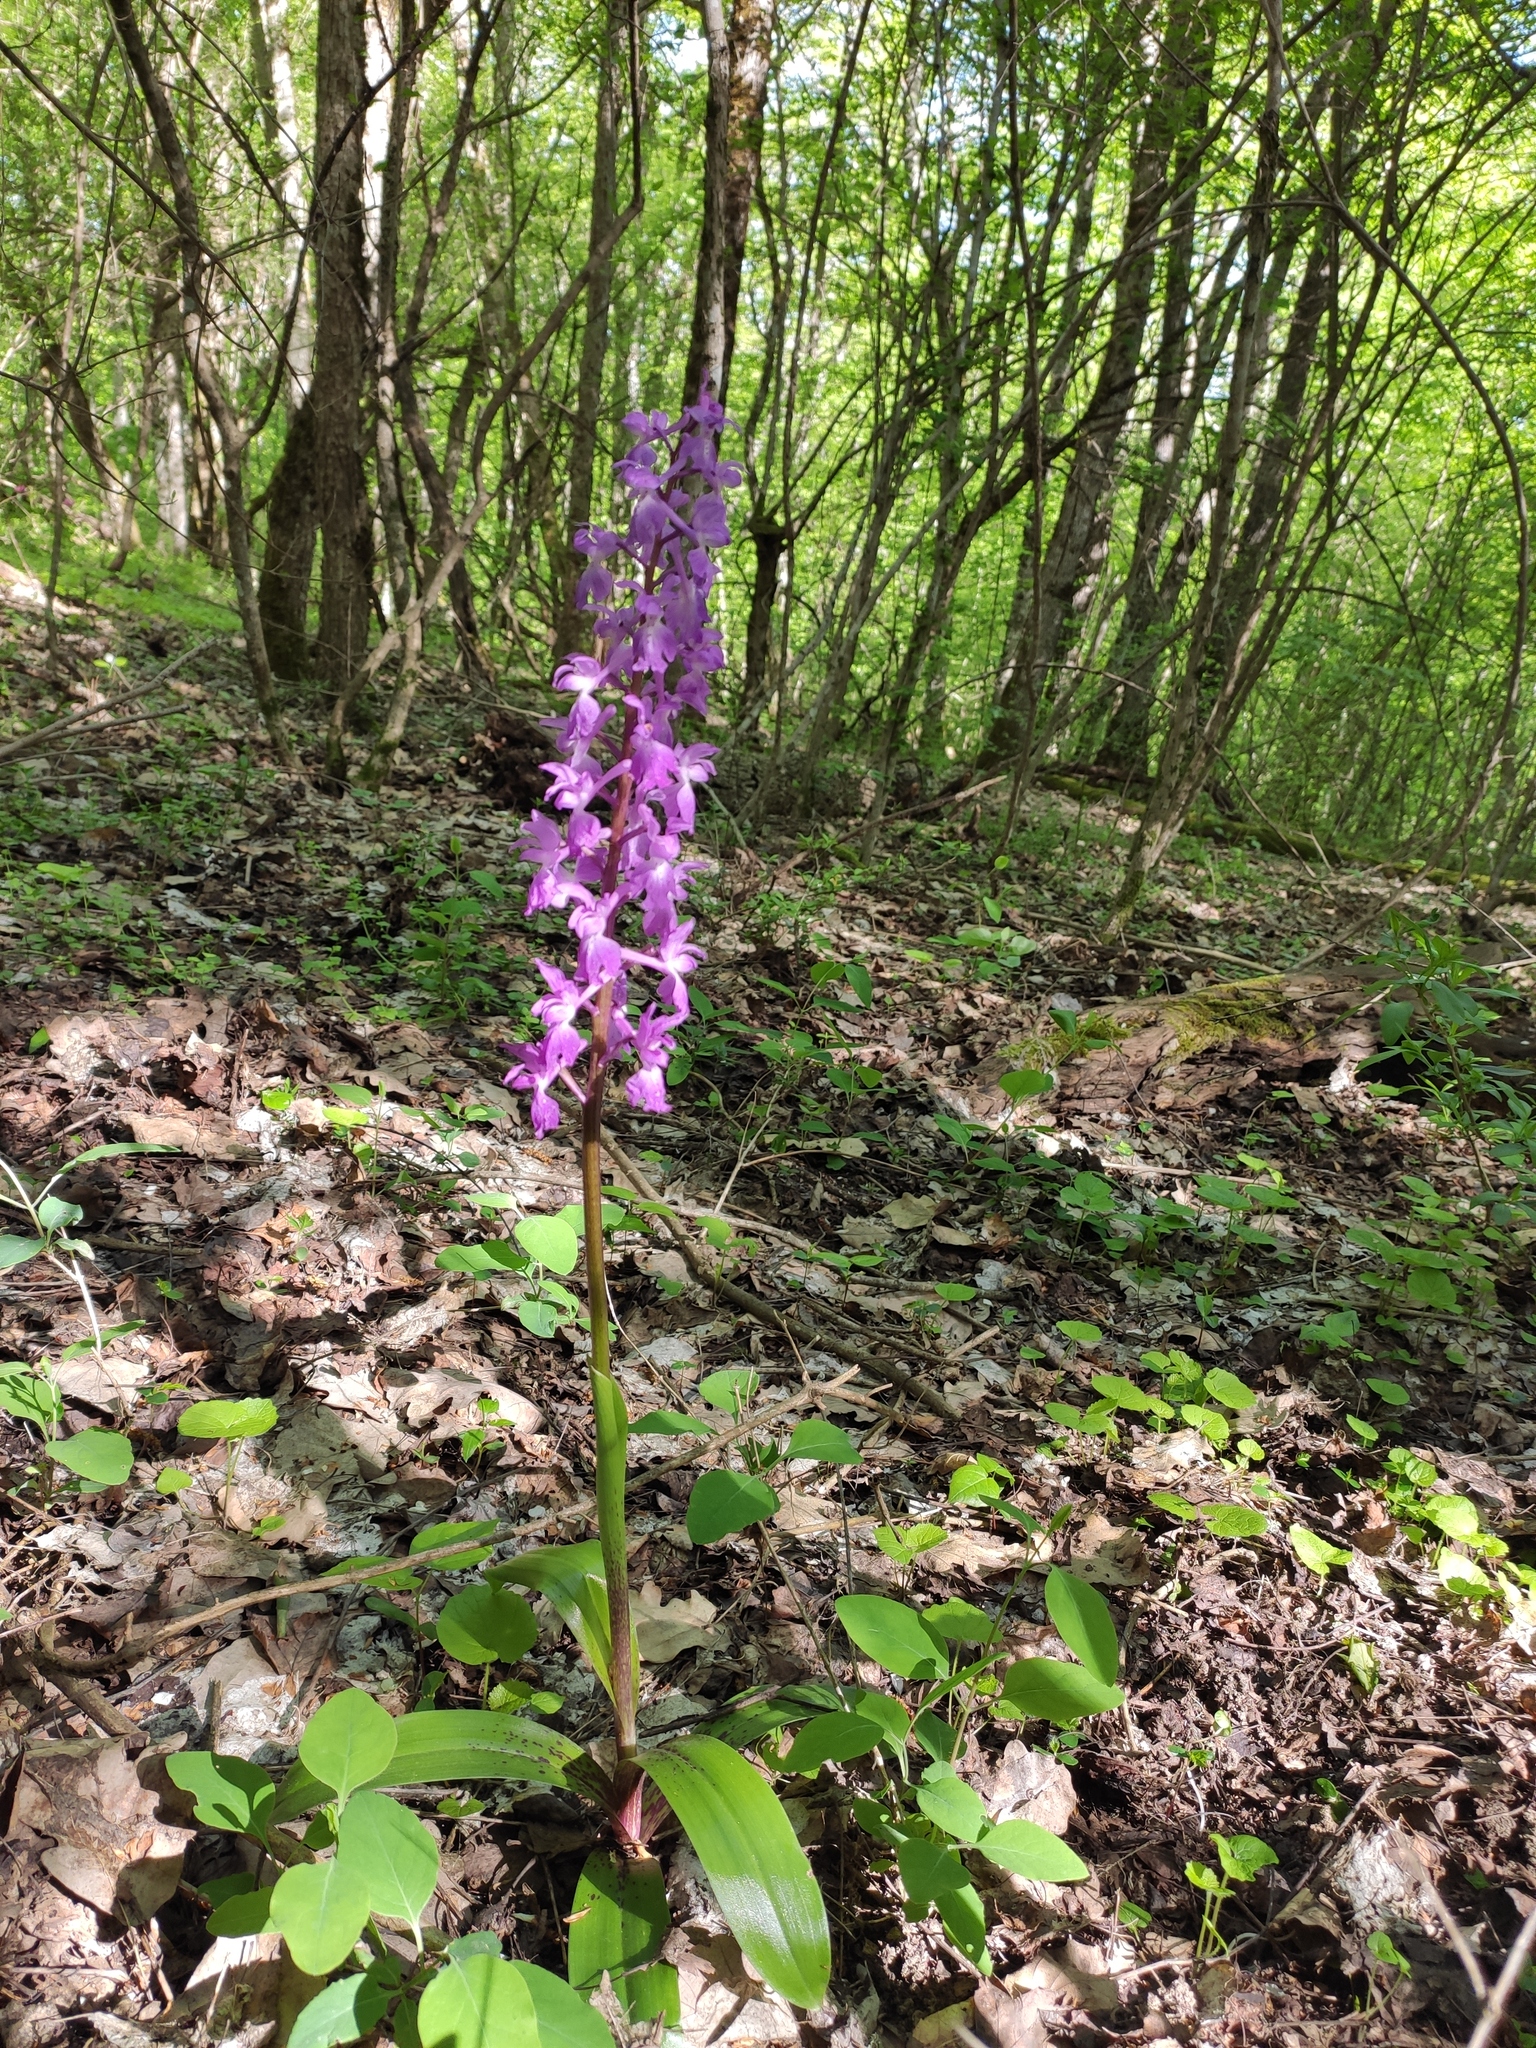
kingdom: Plantae
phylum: Tracheophyta
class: Liliopsida
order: Asparagales
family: Orchidaceae
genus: Orchis
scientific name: Orchis mascula
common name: Early-purple orchid
